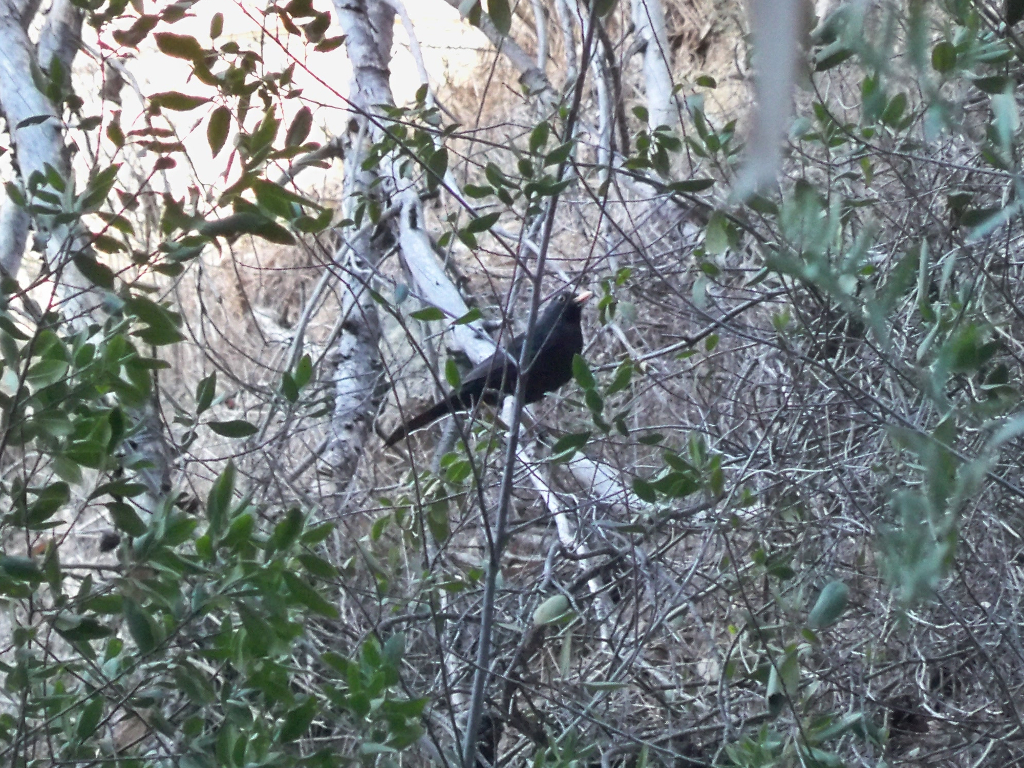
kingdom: Animalia
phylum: Chordata
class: Aves
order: Passeriformes
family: Turdidae
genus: Turdus
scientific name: Turdus merula
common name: Common blackbird
